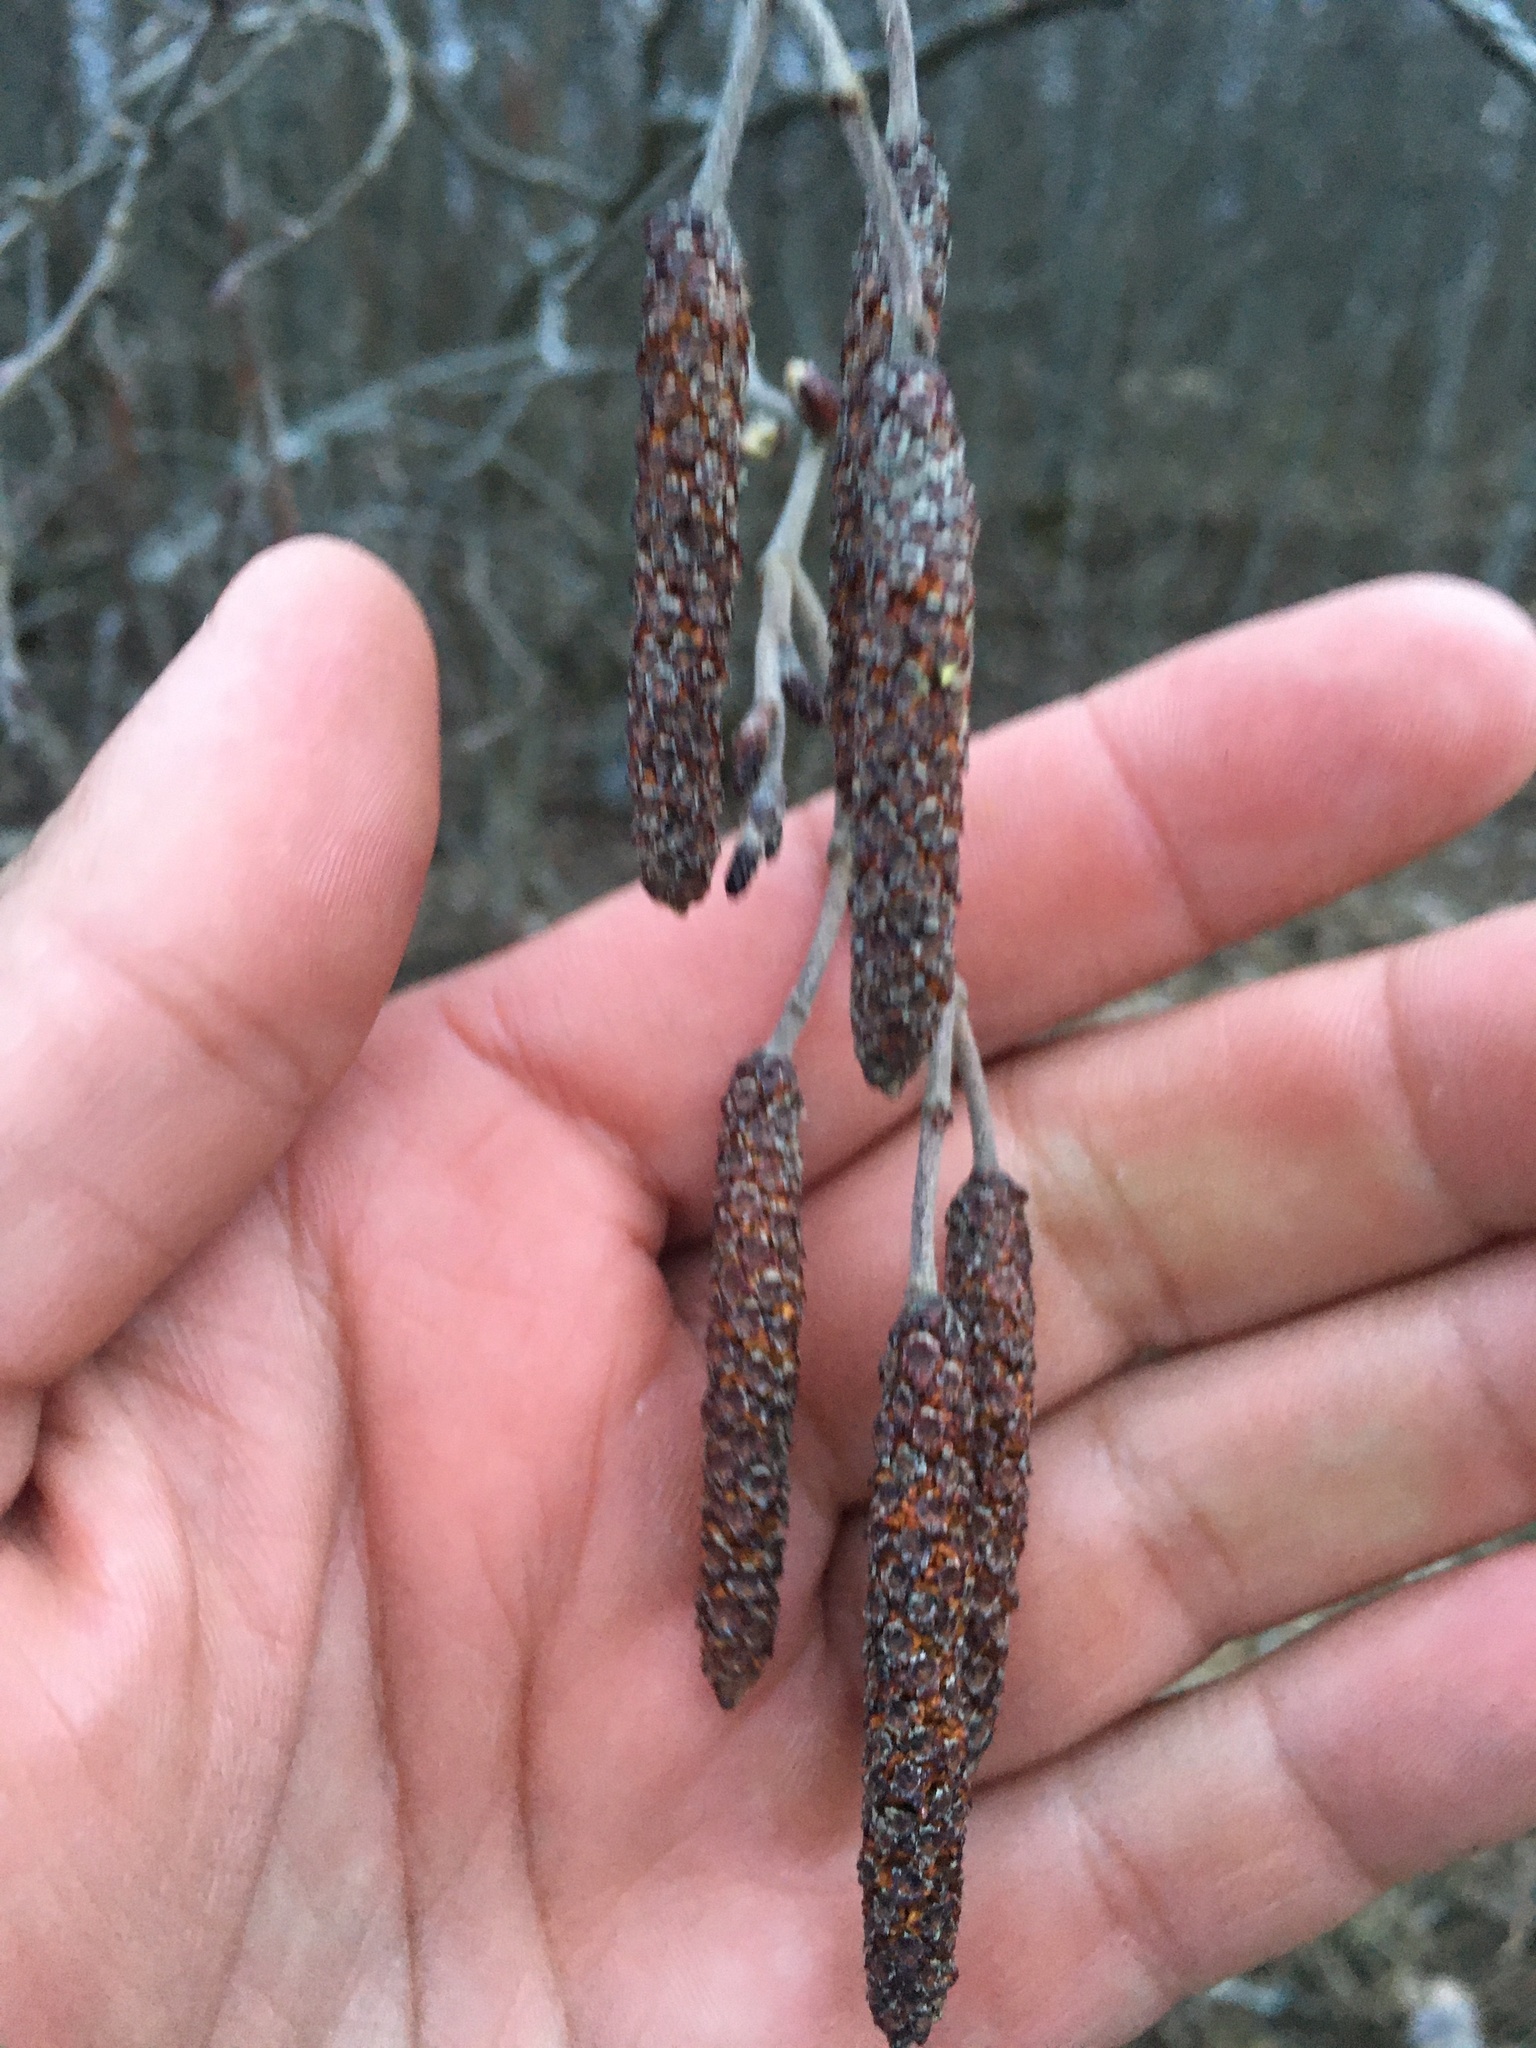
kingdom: Plantae
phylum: Tracheophyta
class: Magnoliopsida
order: Fagales
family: Betulaceae
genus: Alnus
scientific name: Alnus incana
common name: Grey alder
